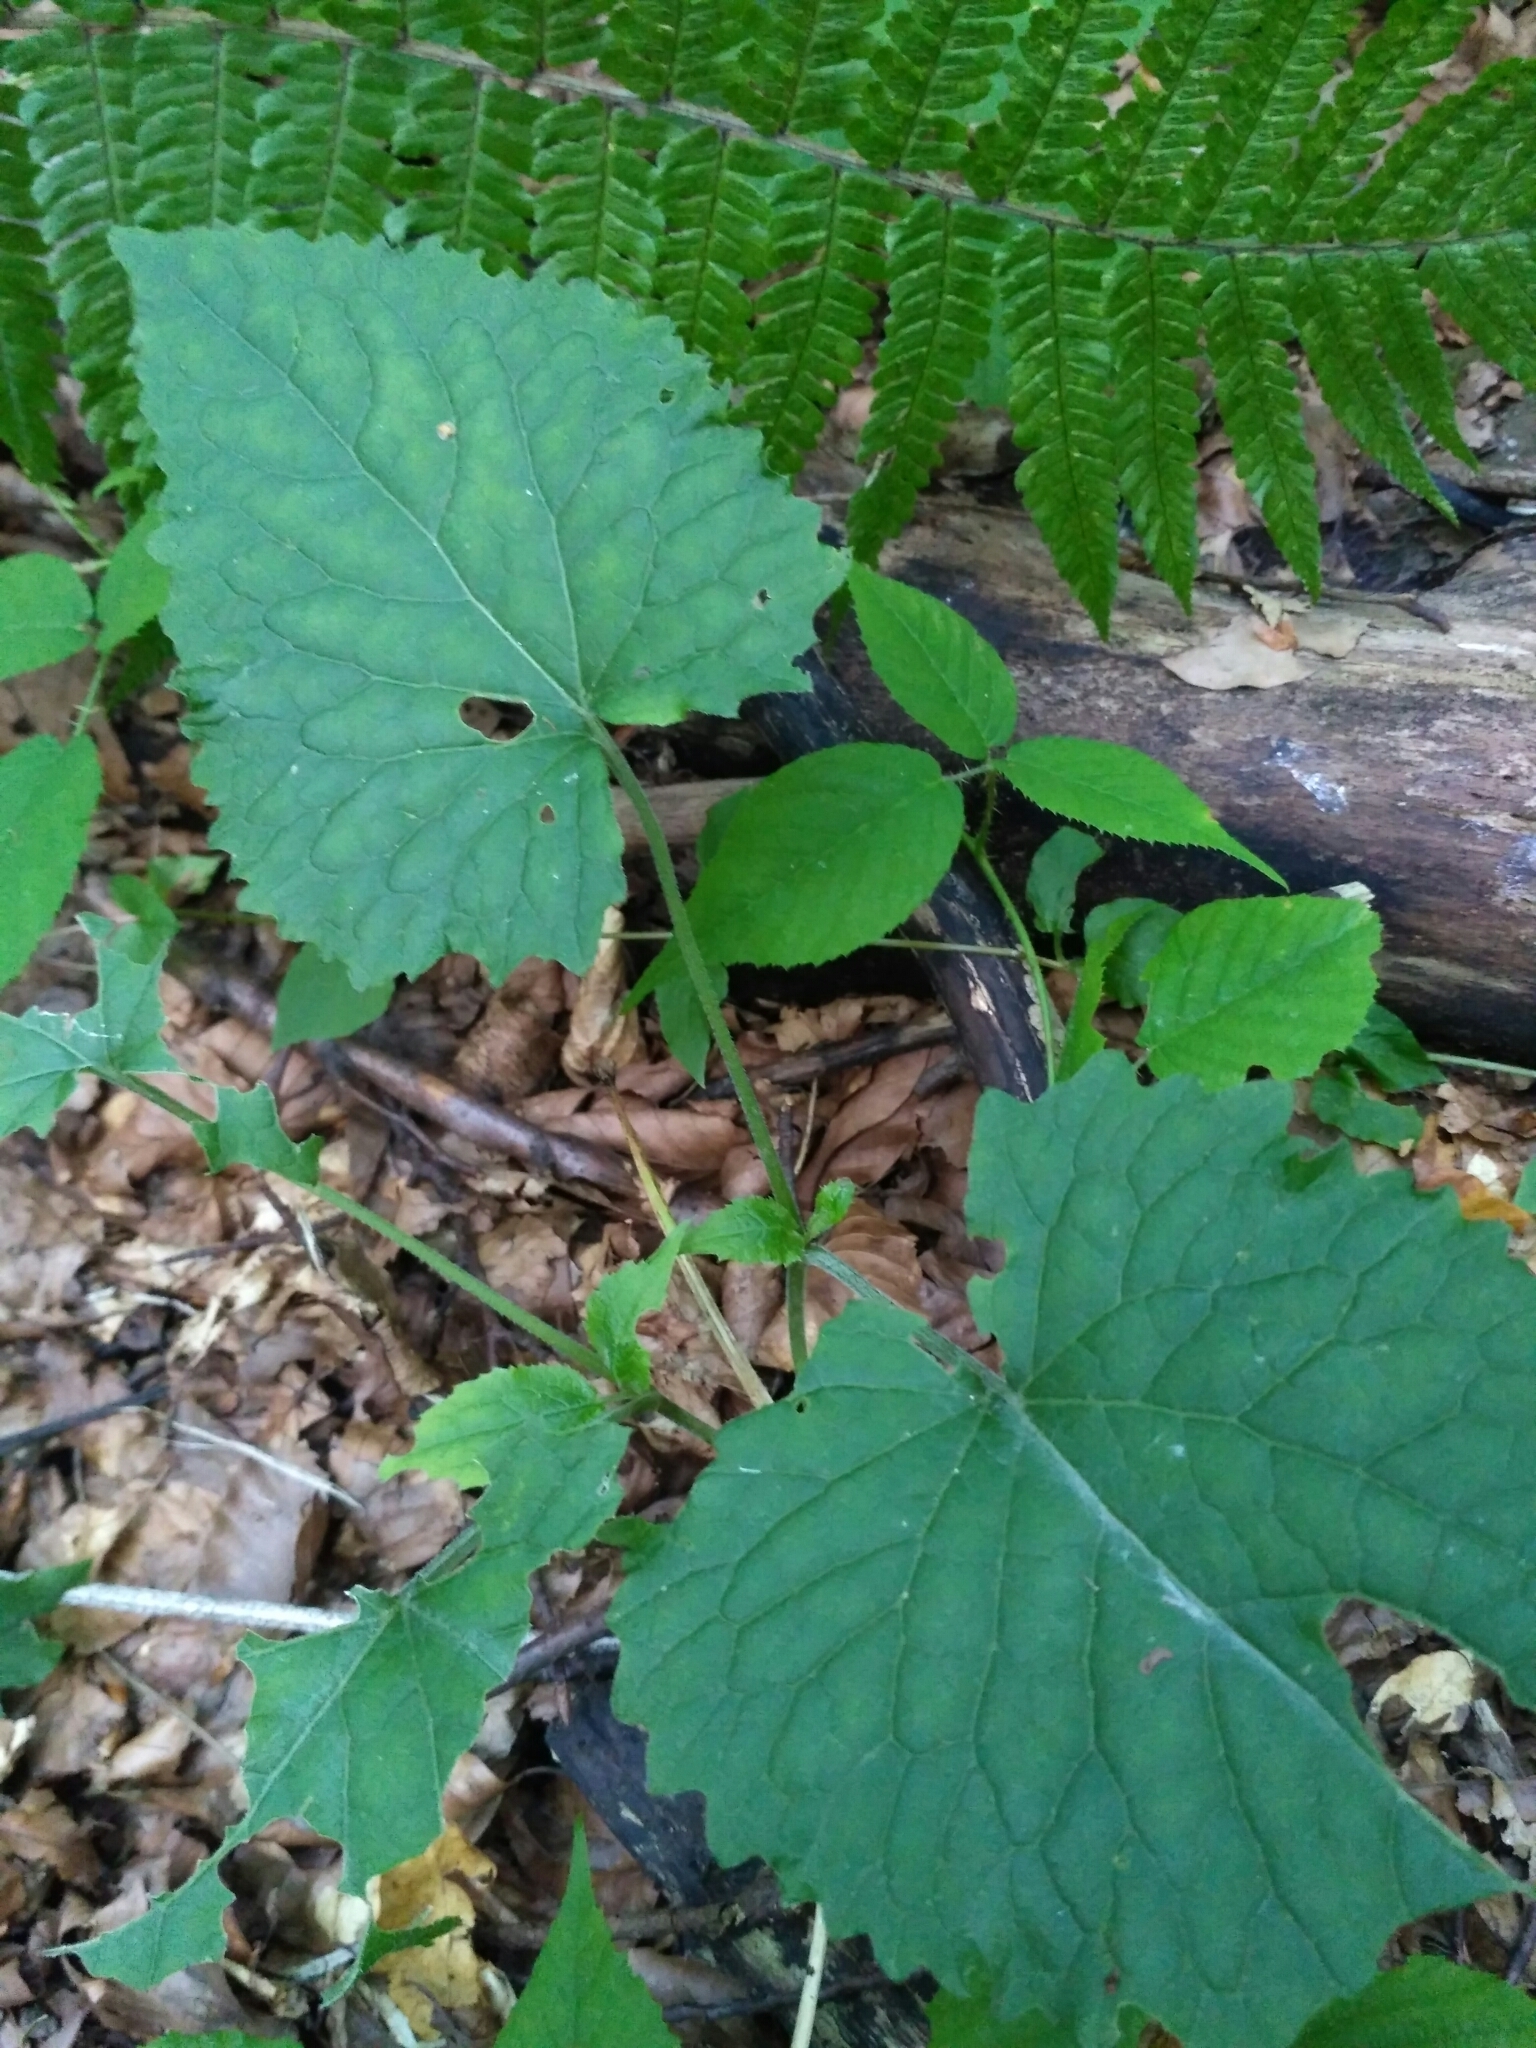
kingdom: Plantae
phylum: Tracheophyta
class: Magnoliopsida
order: Brassicales
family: Brassicaceae
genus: Lunaria
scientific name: Lunaria rediviva
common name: Perennial honesty
